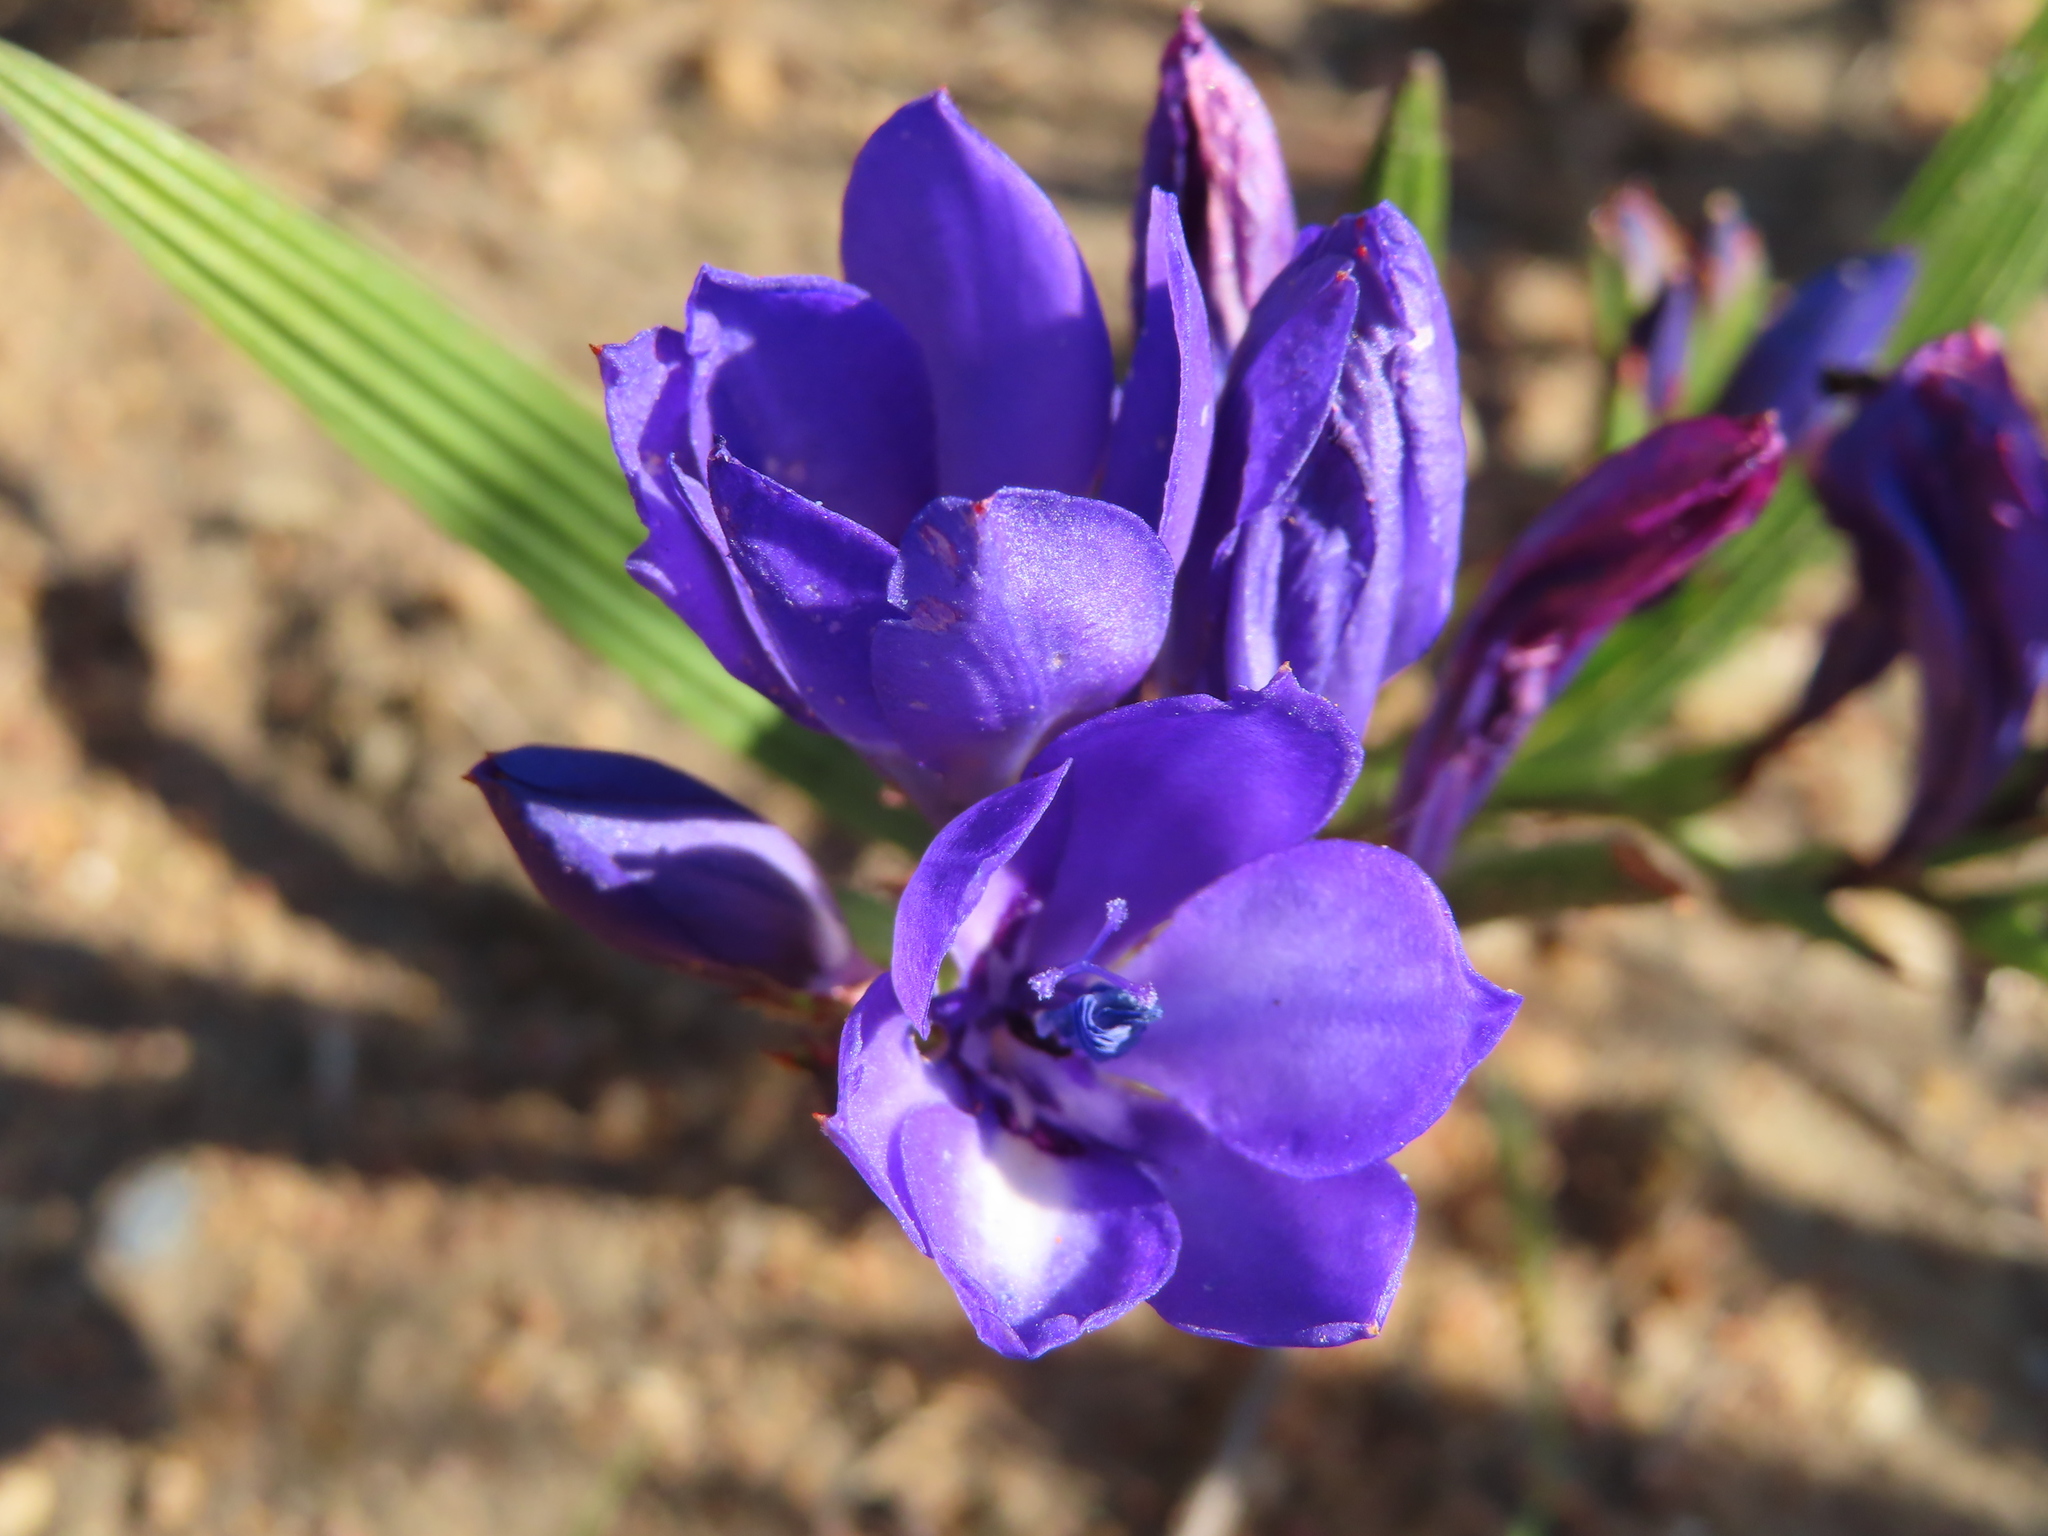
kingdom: Plantae
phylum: Tracheophyta
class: Liliopsida
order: Asparagales
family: Iridaceae
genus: Babiana
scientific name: Babiana angustifolia
